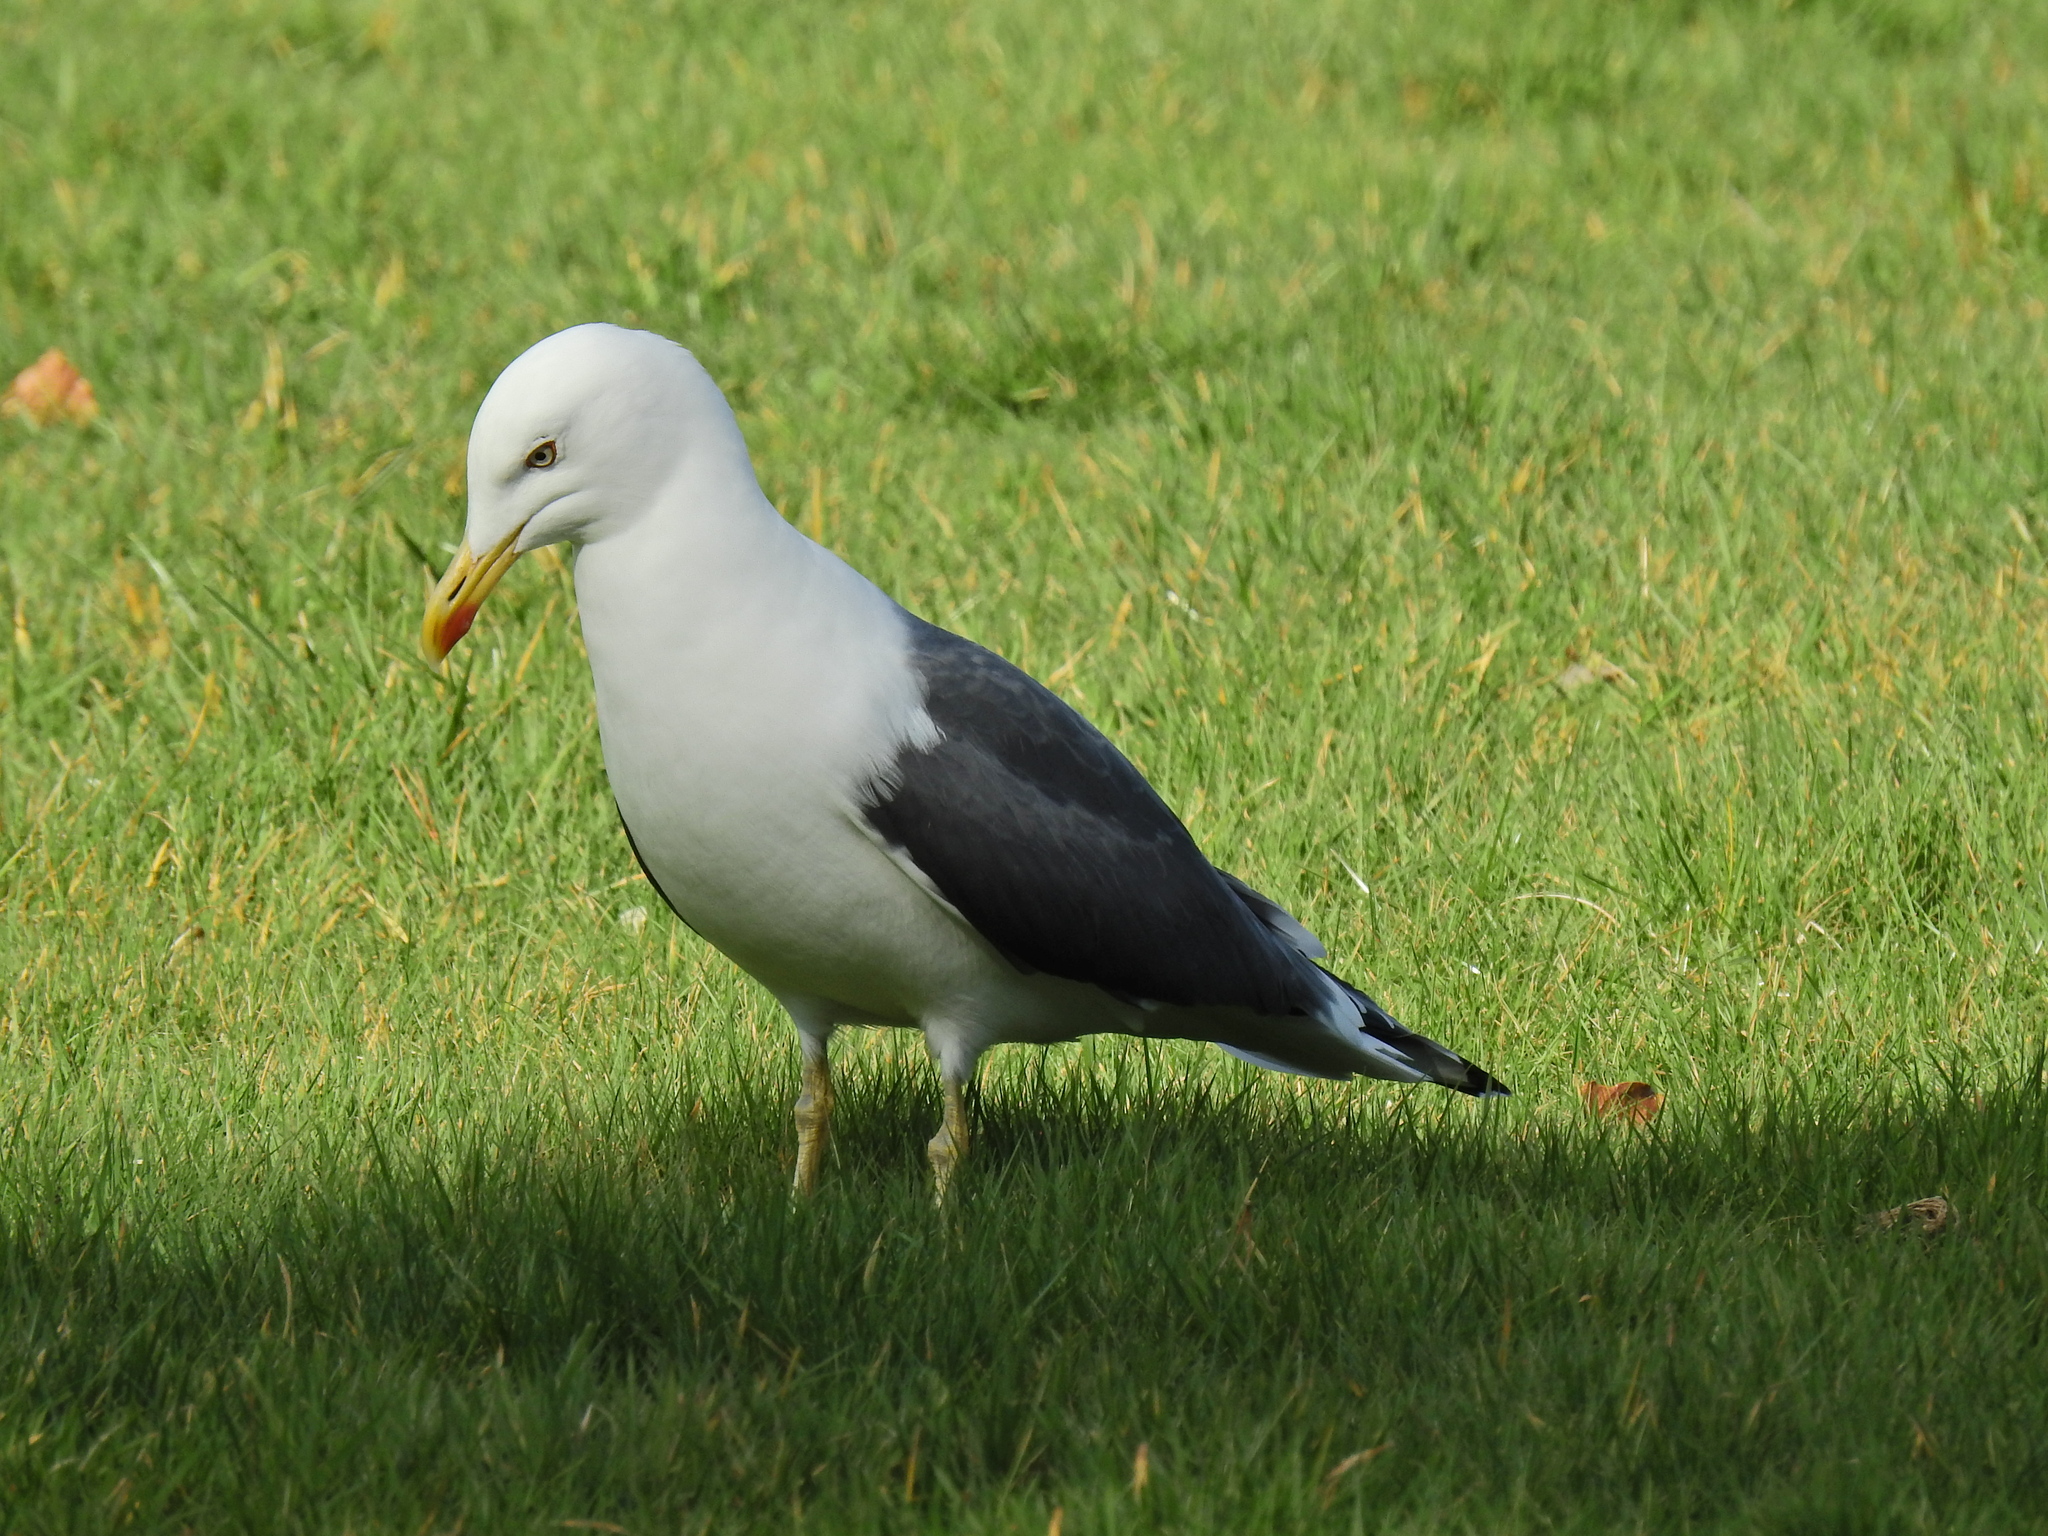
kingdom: Animalia
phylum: Chordata
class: Aves
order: Charadriiformes
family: Laridae
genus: Larus
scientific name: Larus fuscus
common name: Lesser black-backed gull
